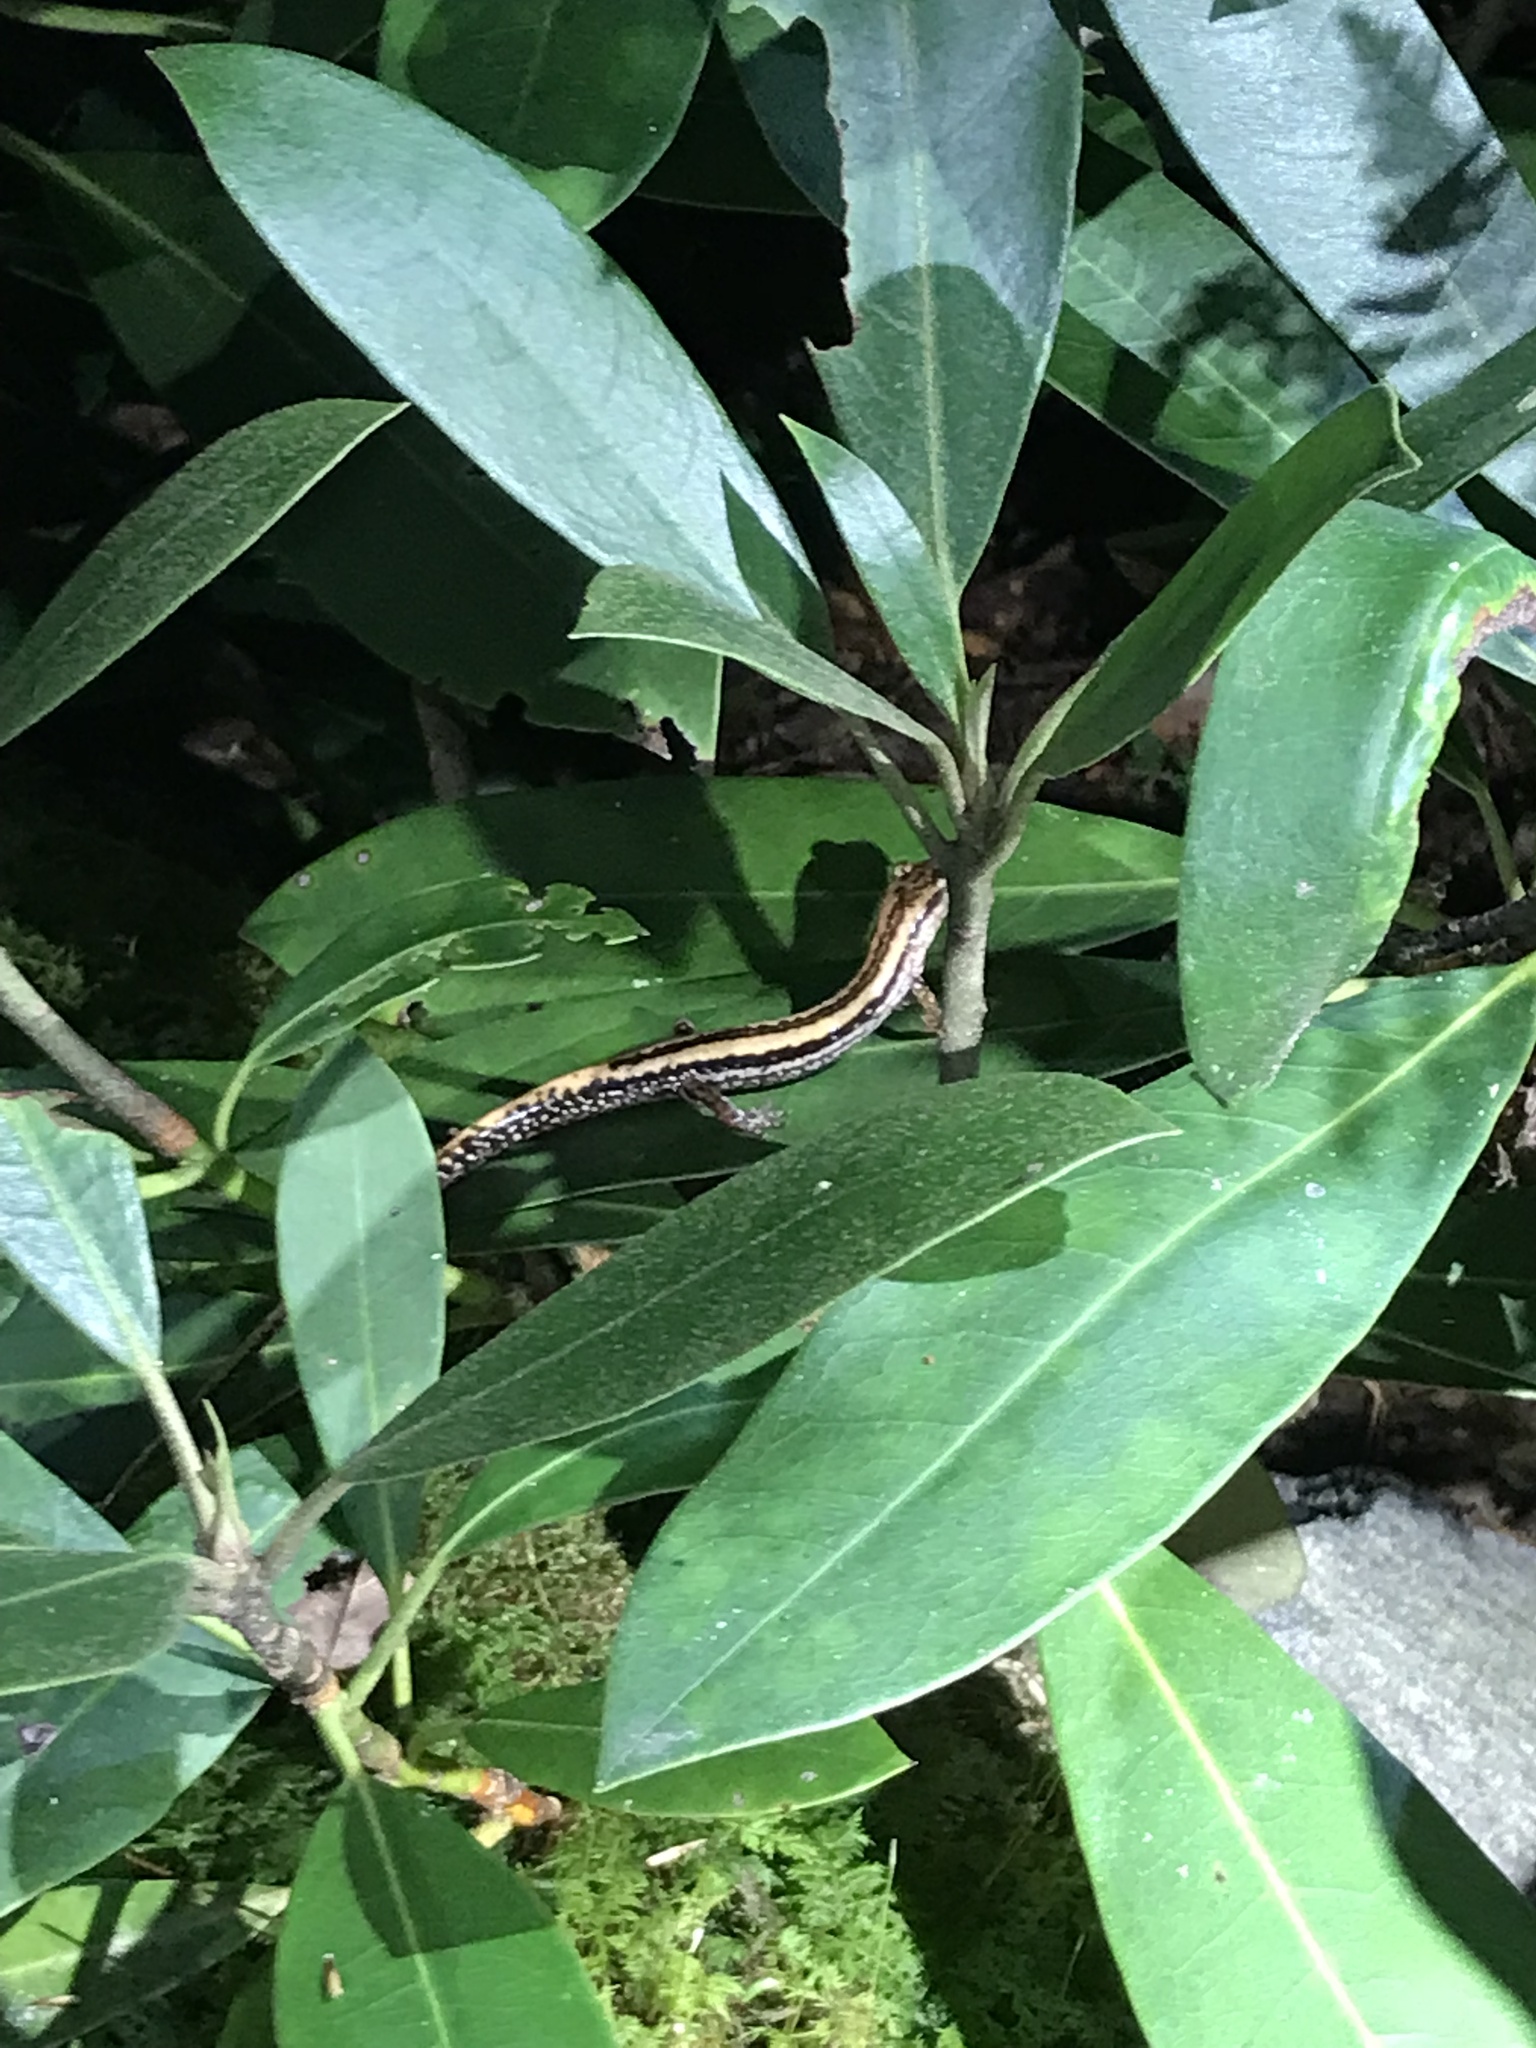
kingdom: Animalia
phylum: Chordata
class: Amphibia
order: Caudata
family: Plethodontidae
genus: Eurycea
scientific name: Eurycea guttolineata
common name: Three-lined salamander
